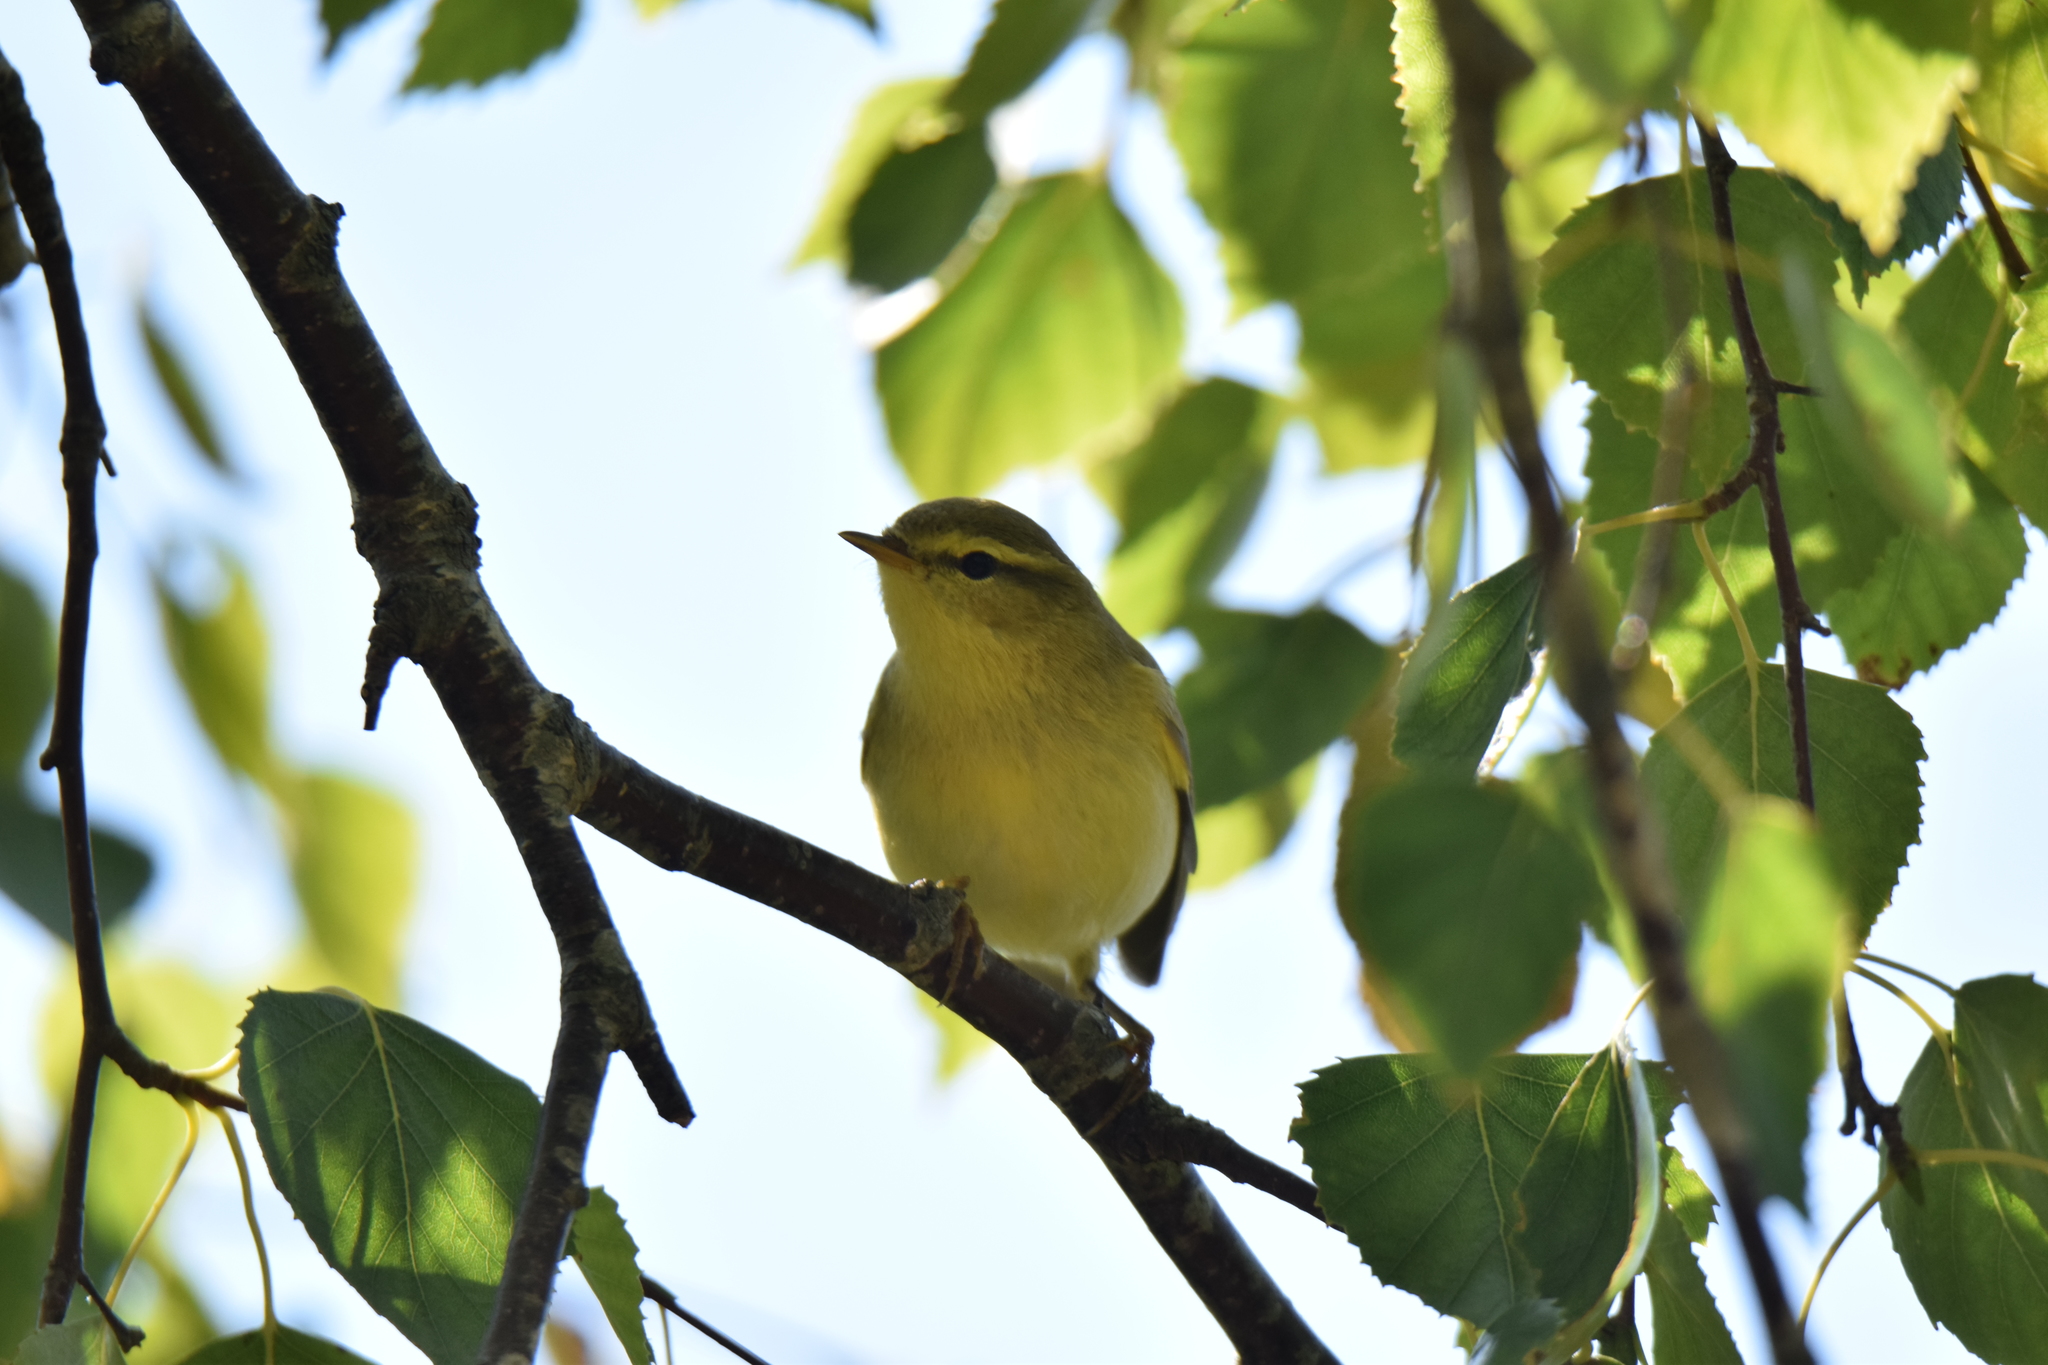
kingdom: Animalia
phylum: Chordata
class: Aves
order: Passeriformes
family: Phylloscopidae
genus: Phylloscopus
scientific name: Phylloscopus trochilus
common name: Willow warbler
